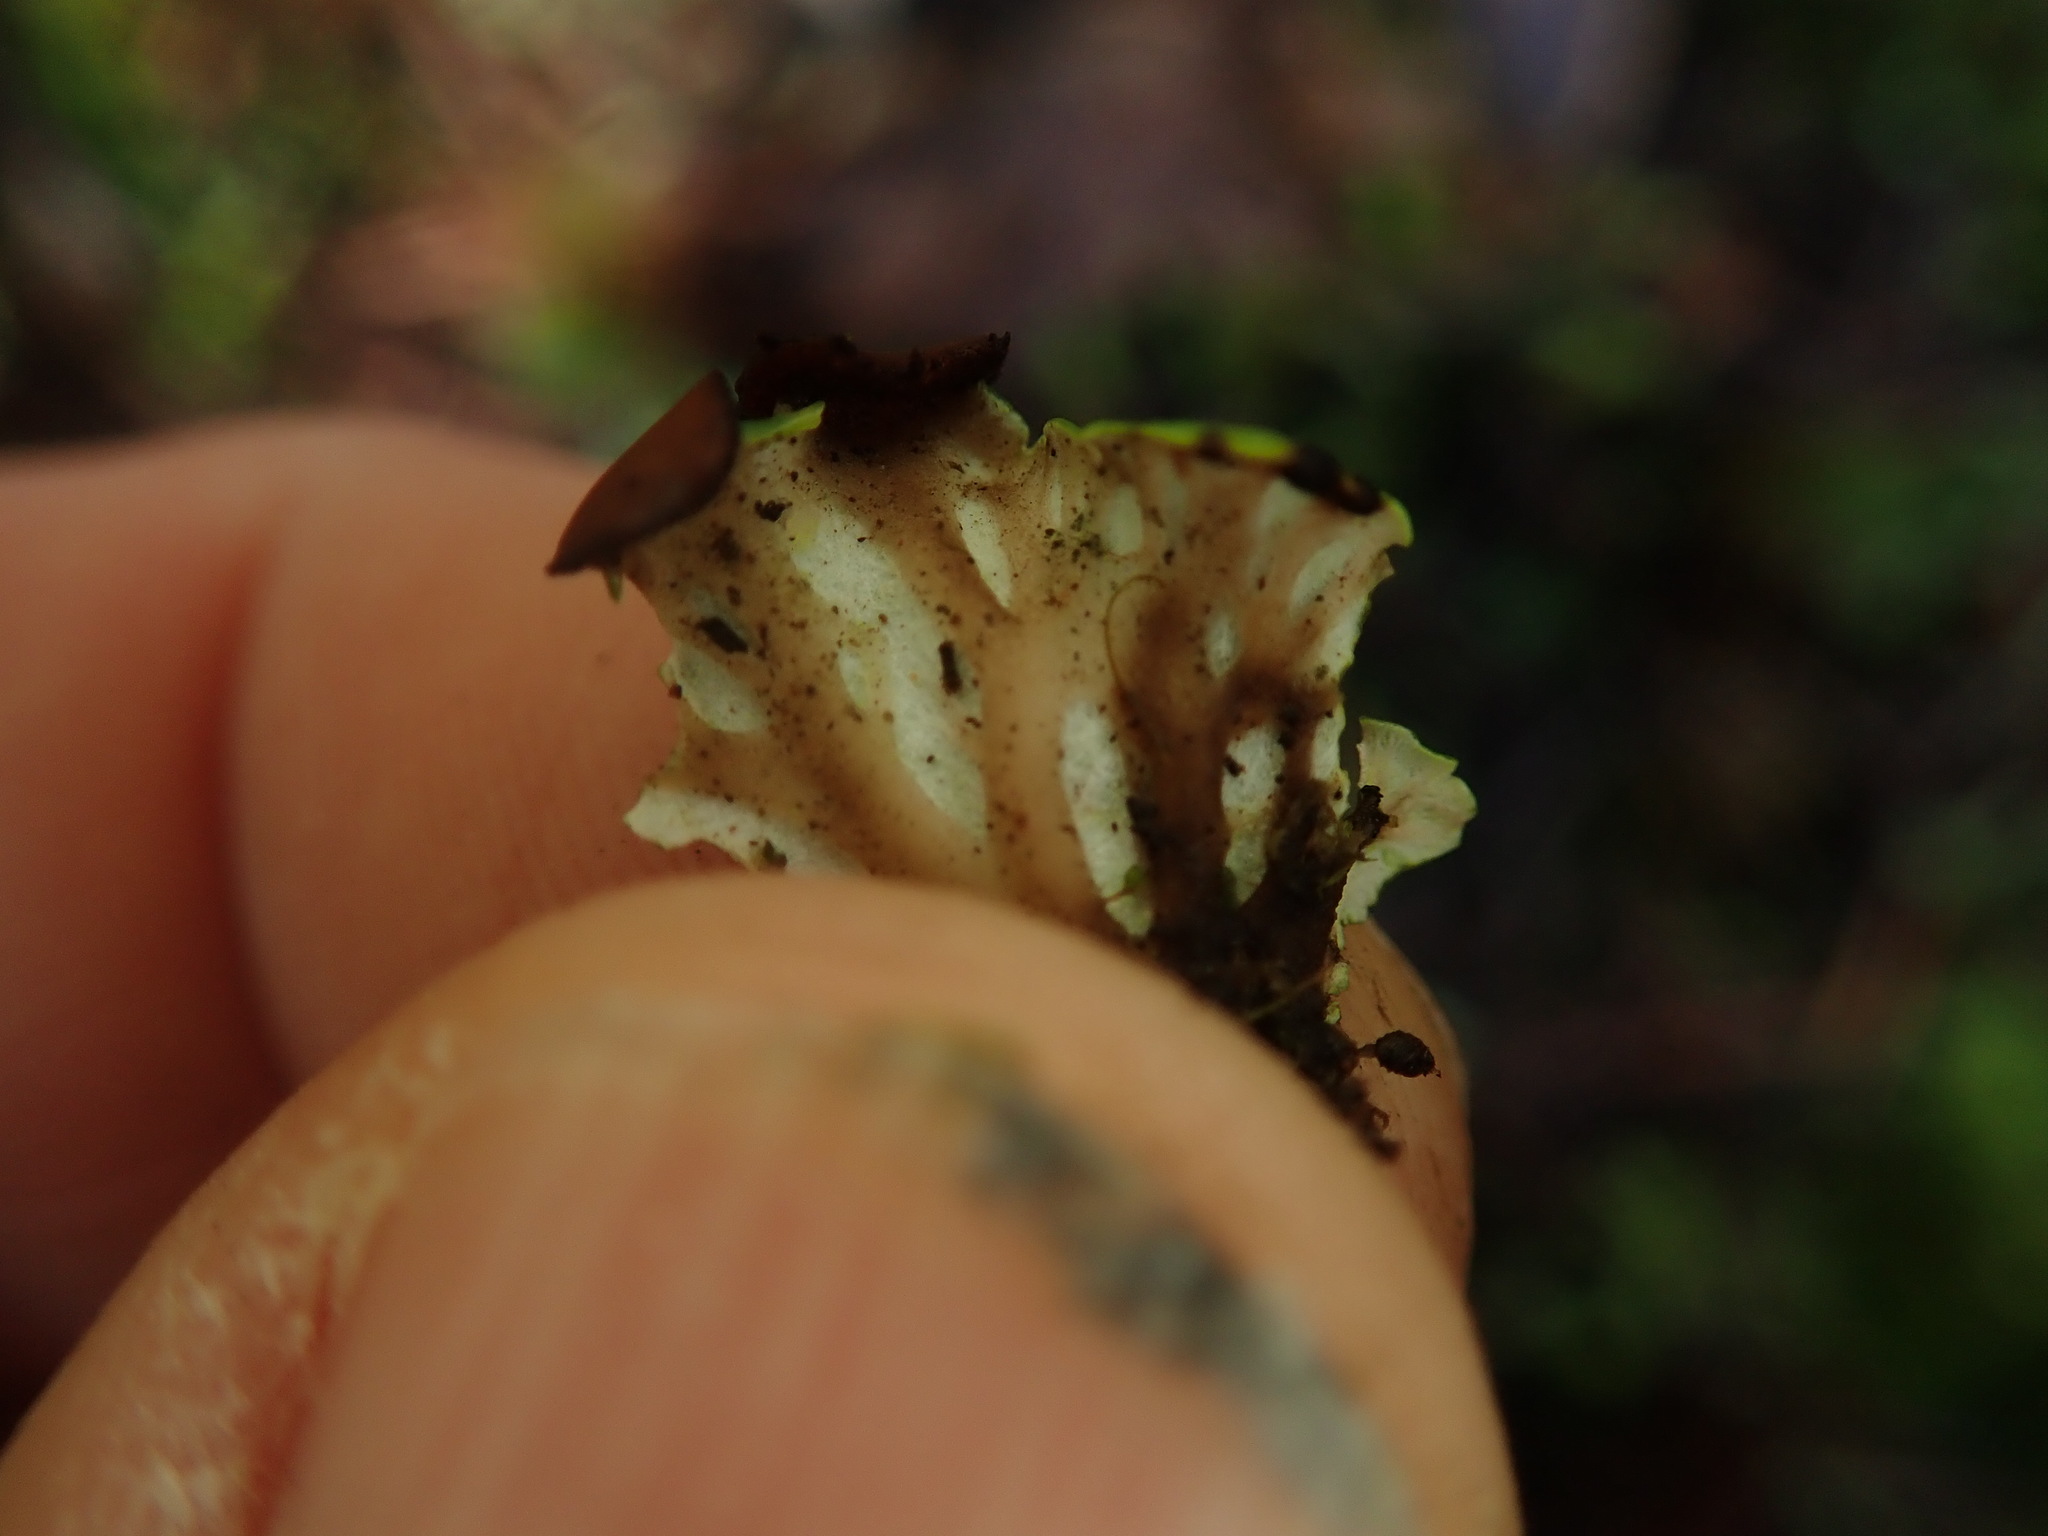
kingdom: Fungi
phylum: Ascomycota
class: Lecanoromycetes
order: Peltigerales
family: Peltigeraceae
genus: Peltigera
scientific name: Peltigera venosa
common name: Pixie gowns lichen
